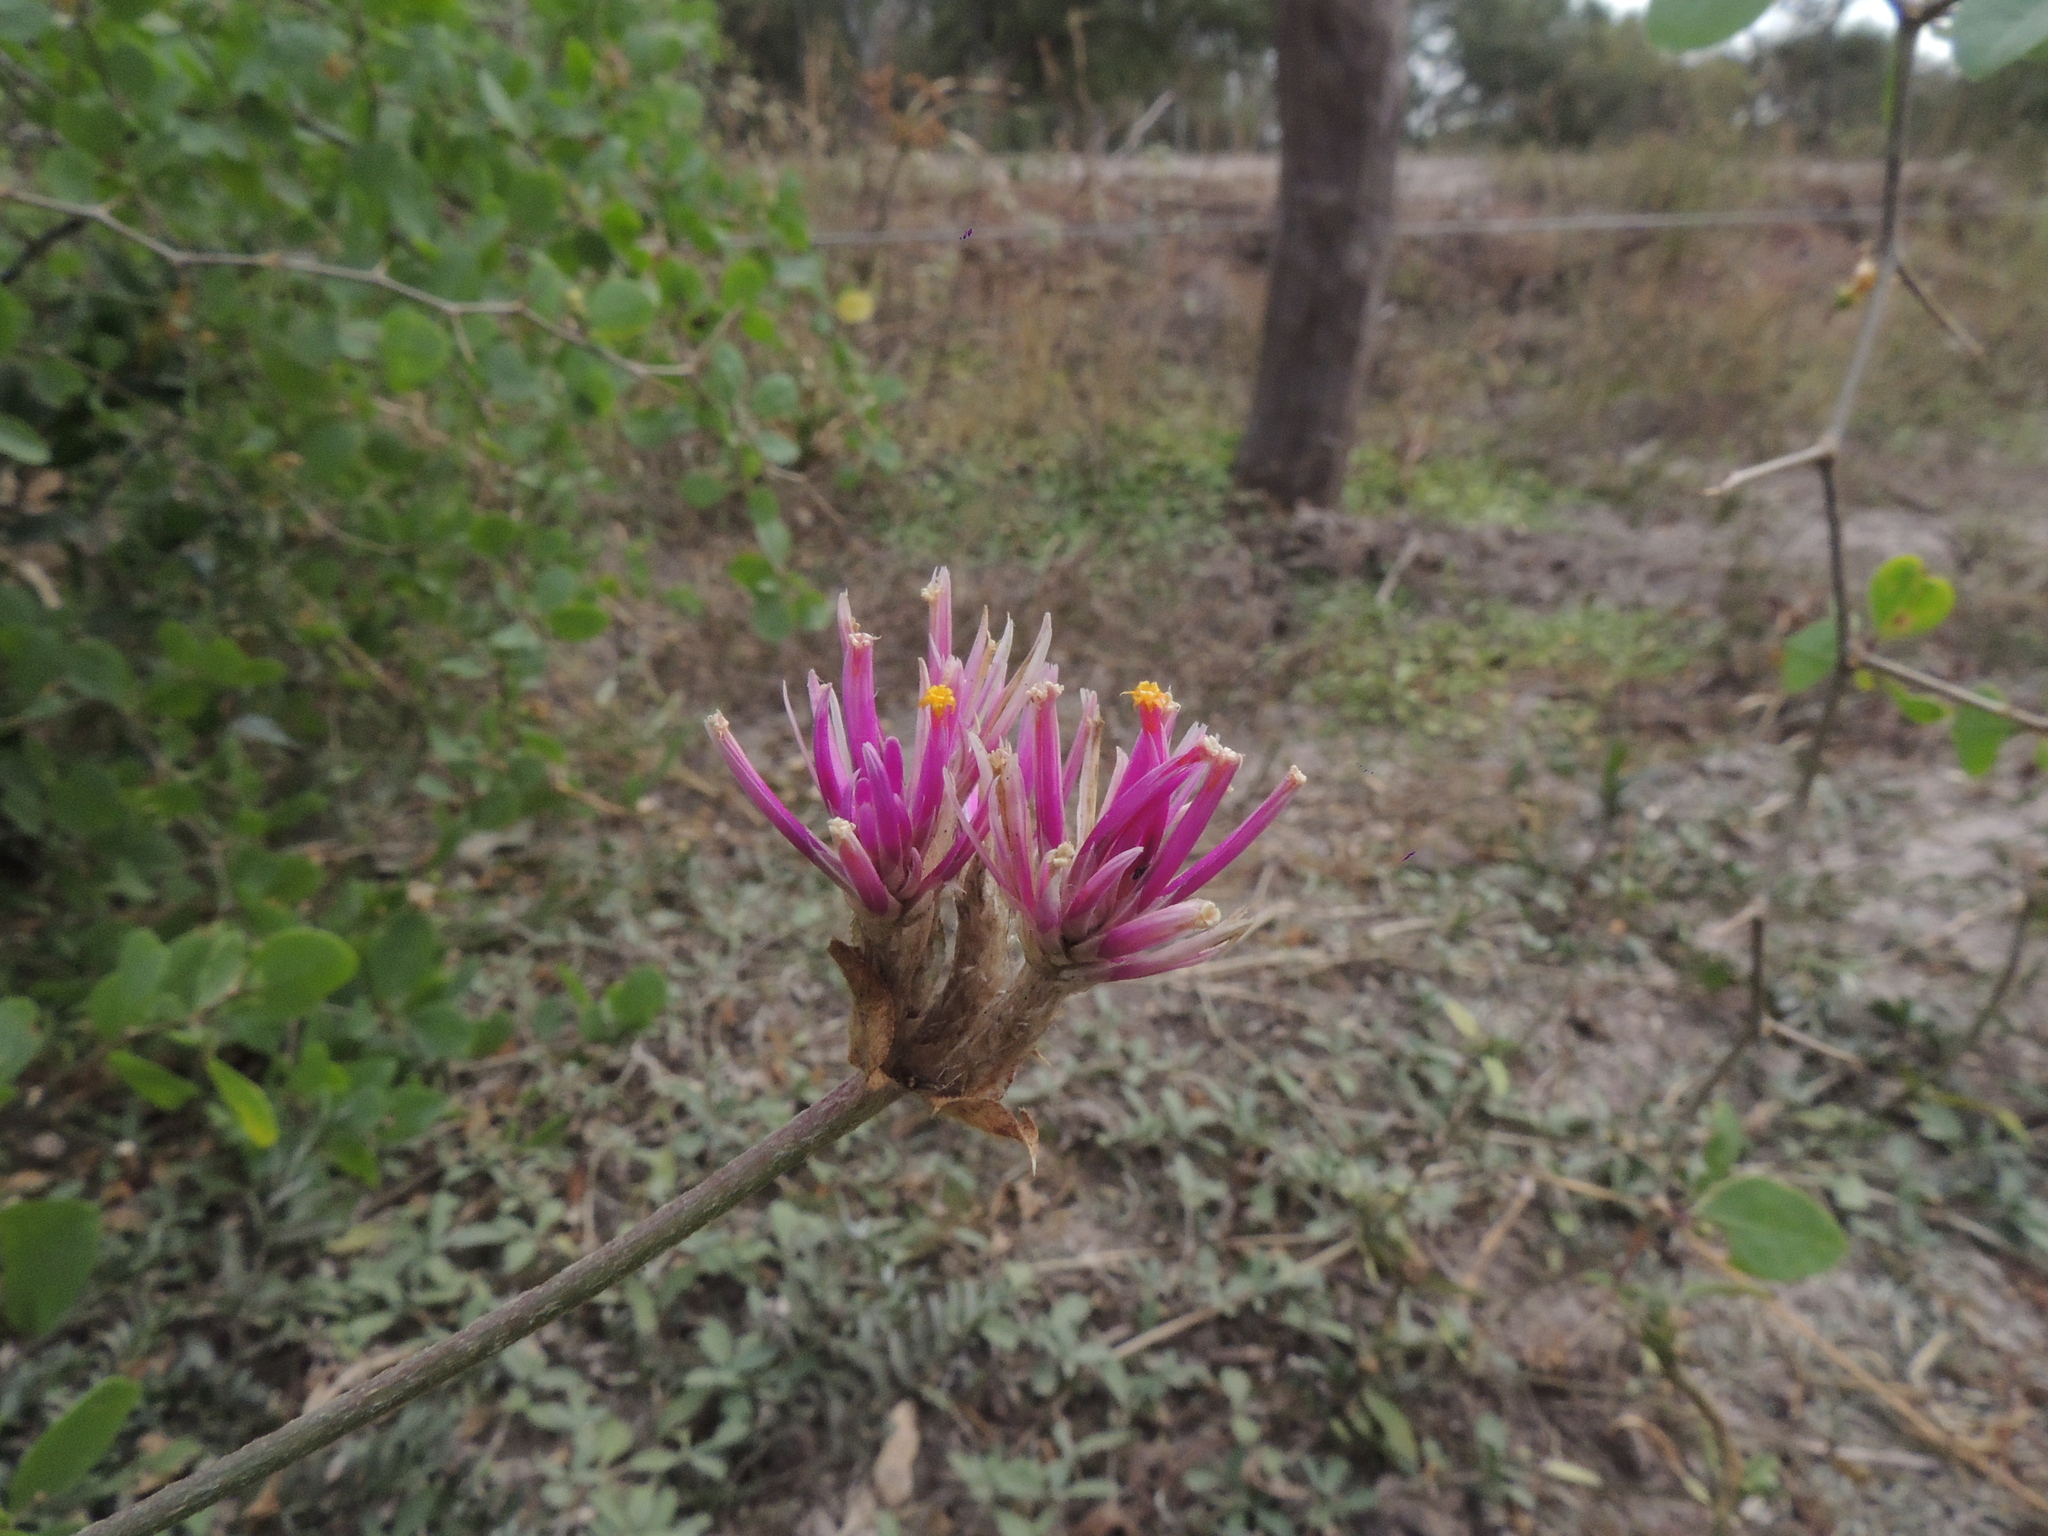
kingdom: Plantae
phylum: Tracheophyta
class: Magnoliopsida
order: Caryophyllales
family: Amaranthaceae
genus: Gomphrena
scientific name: Gomphrena pulchella
